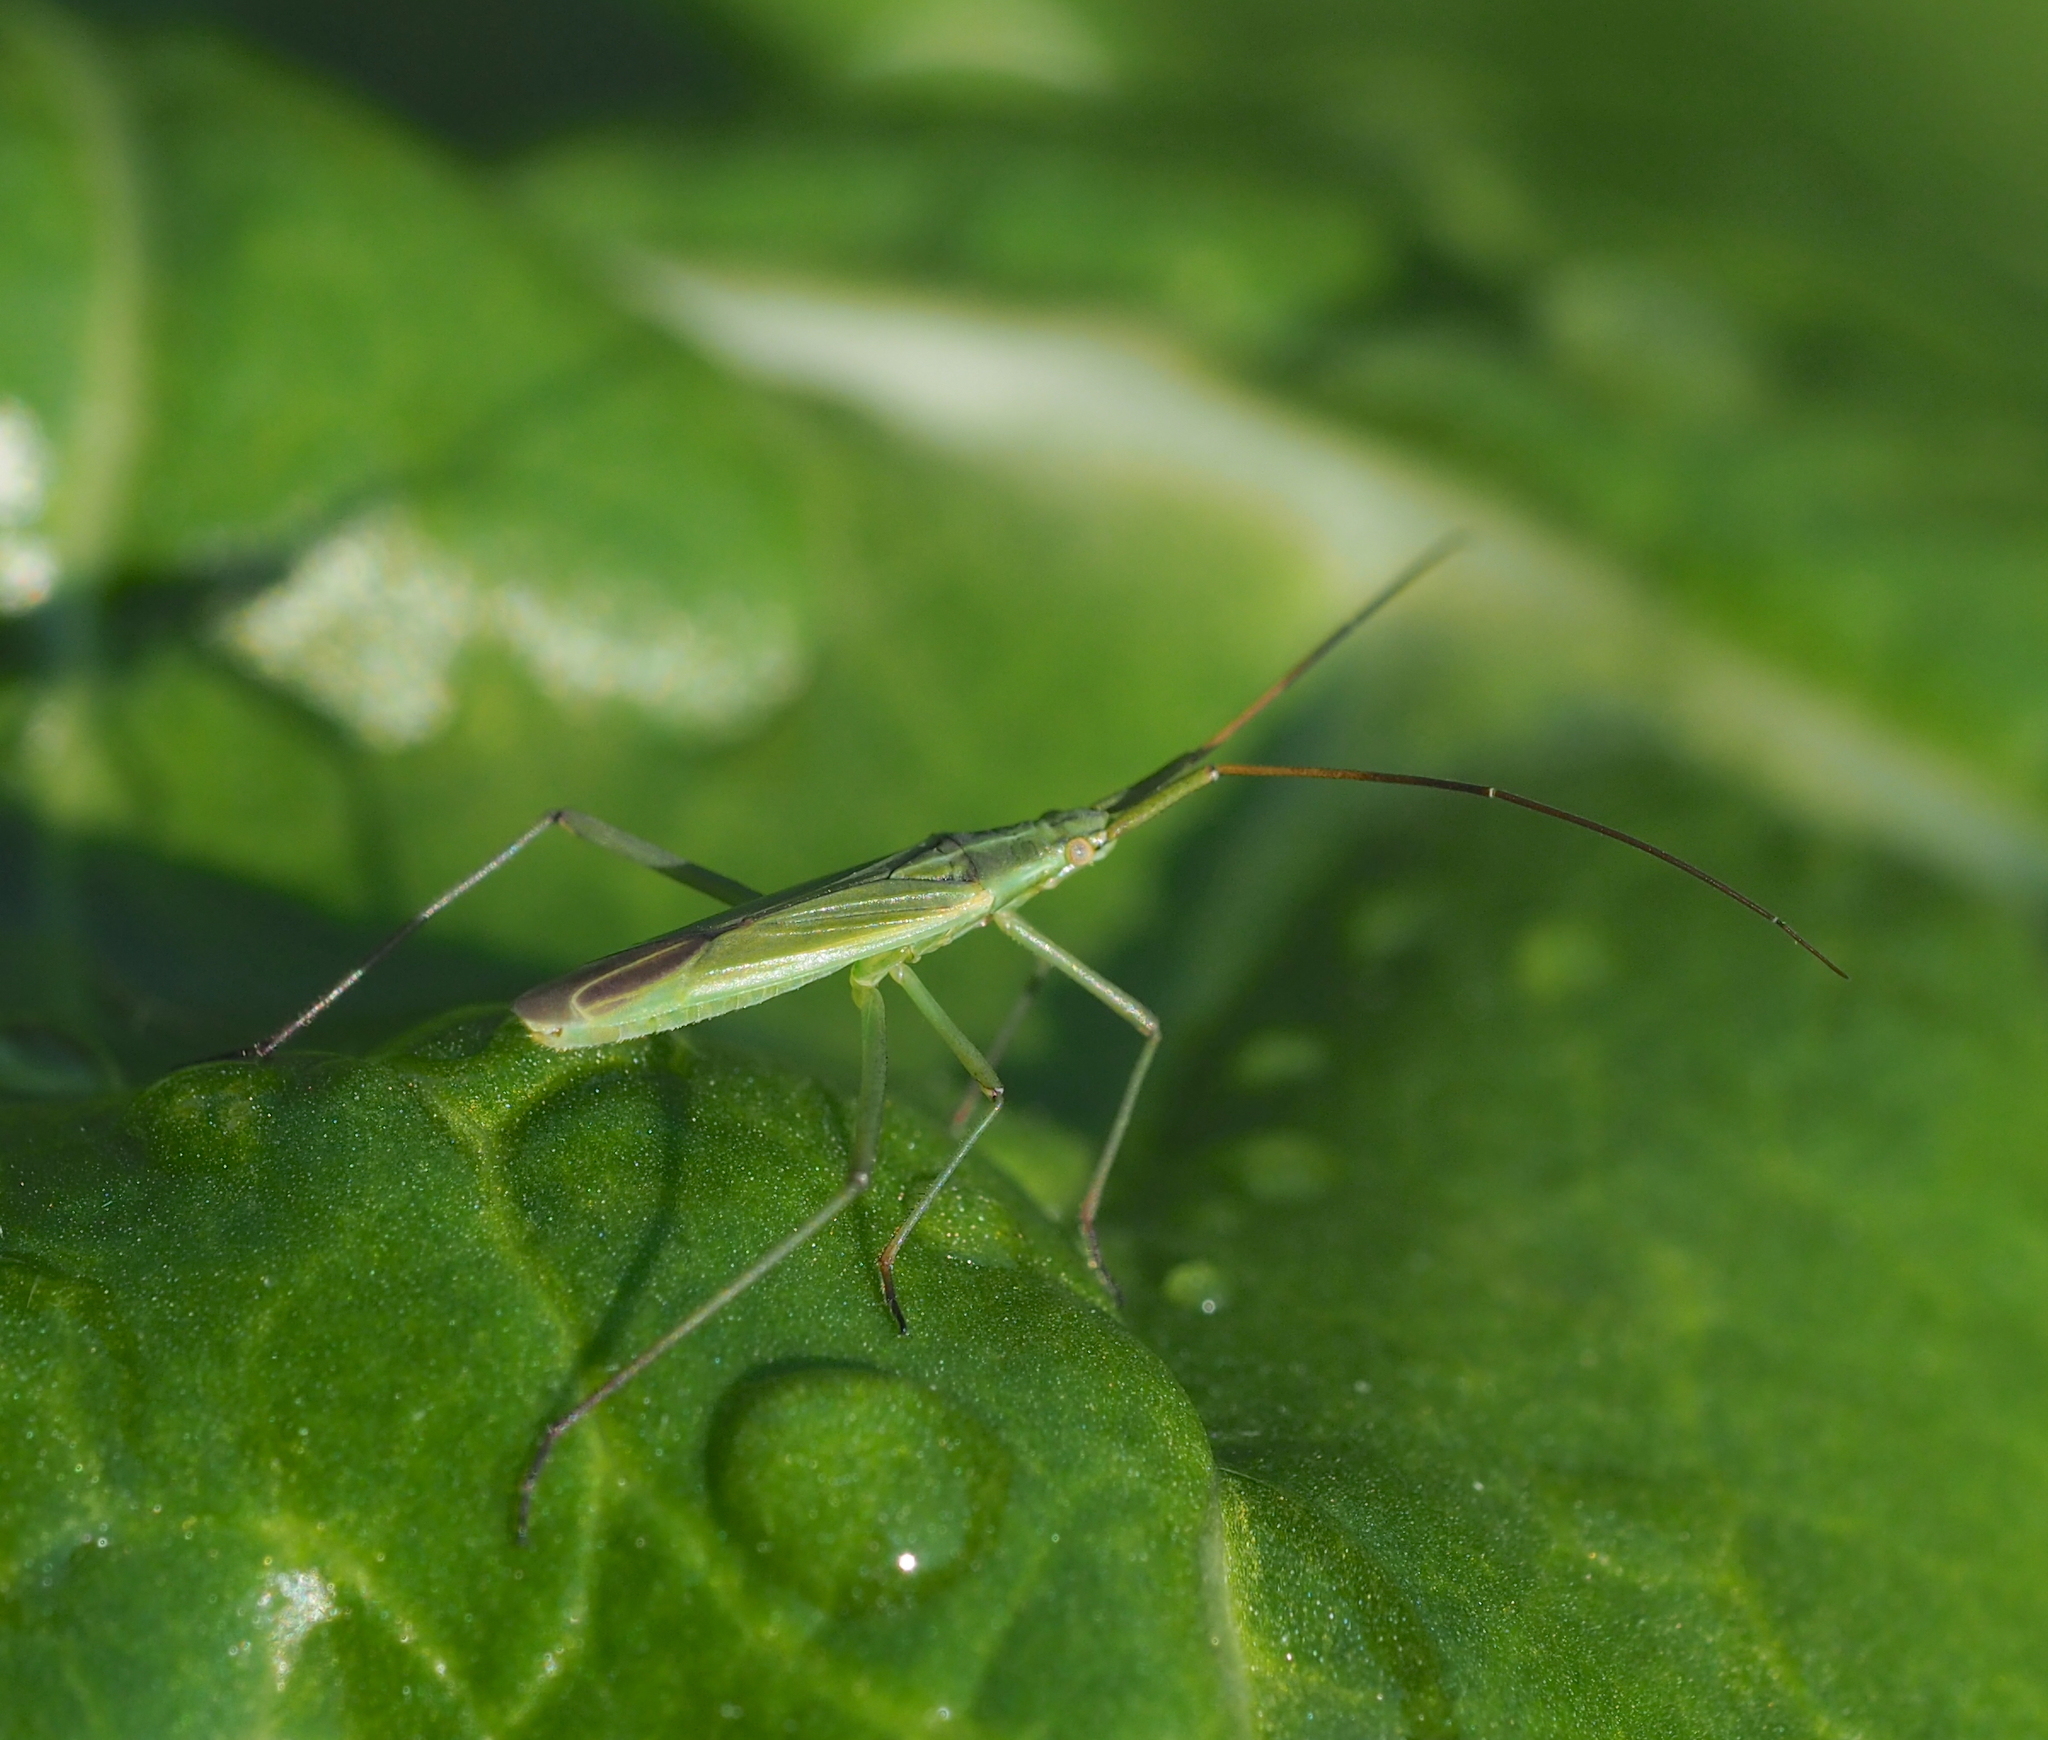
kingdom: Animalia
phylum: Arthropoda
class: Insecta
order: Hemiptera
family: Miridae
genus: Megaloceroea
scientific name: Megaloceroea recticornis
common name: Plant bug
